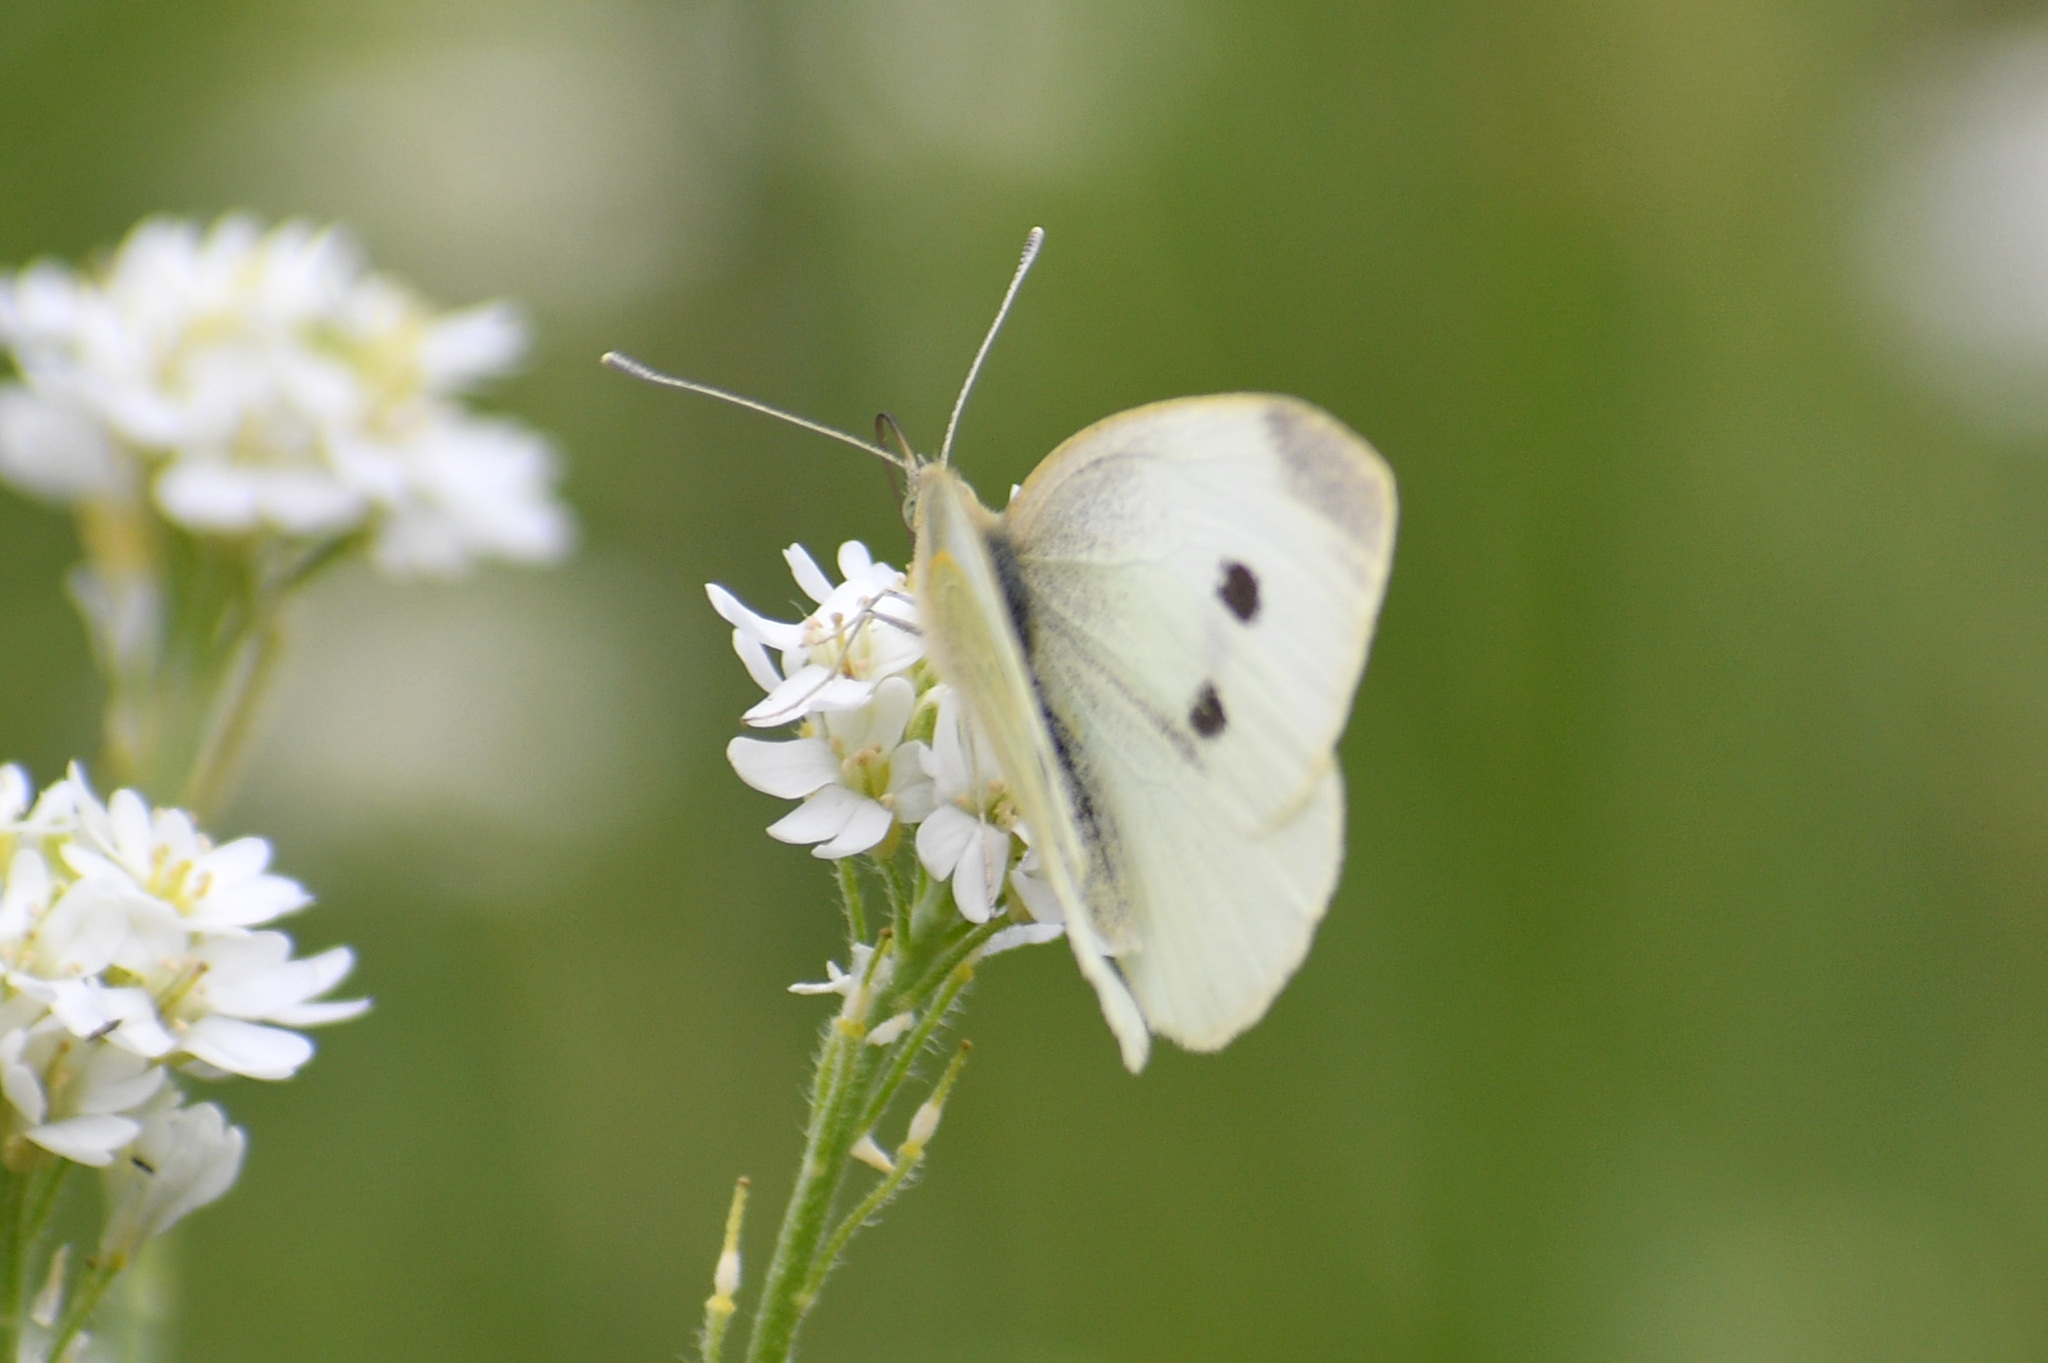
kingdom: Animalia
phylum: Arthropoda
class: Insecta
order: Lepidoptera
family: Pieridae
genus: Pieris
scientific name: Pieris rapae
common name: Small white
